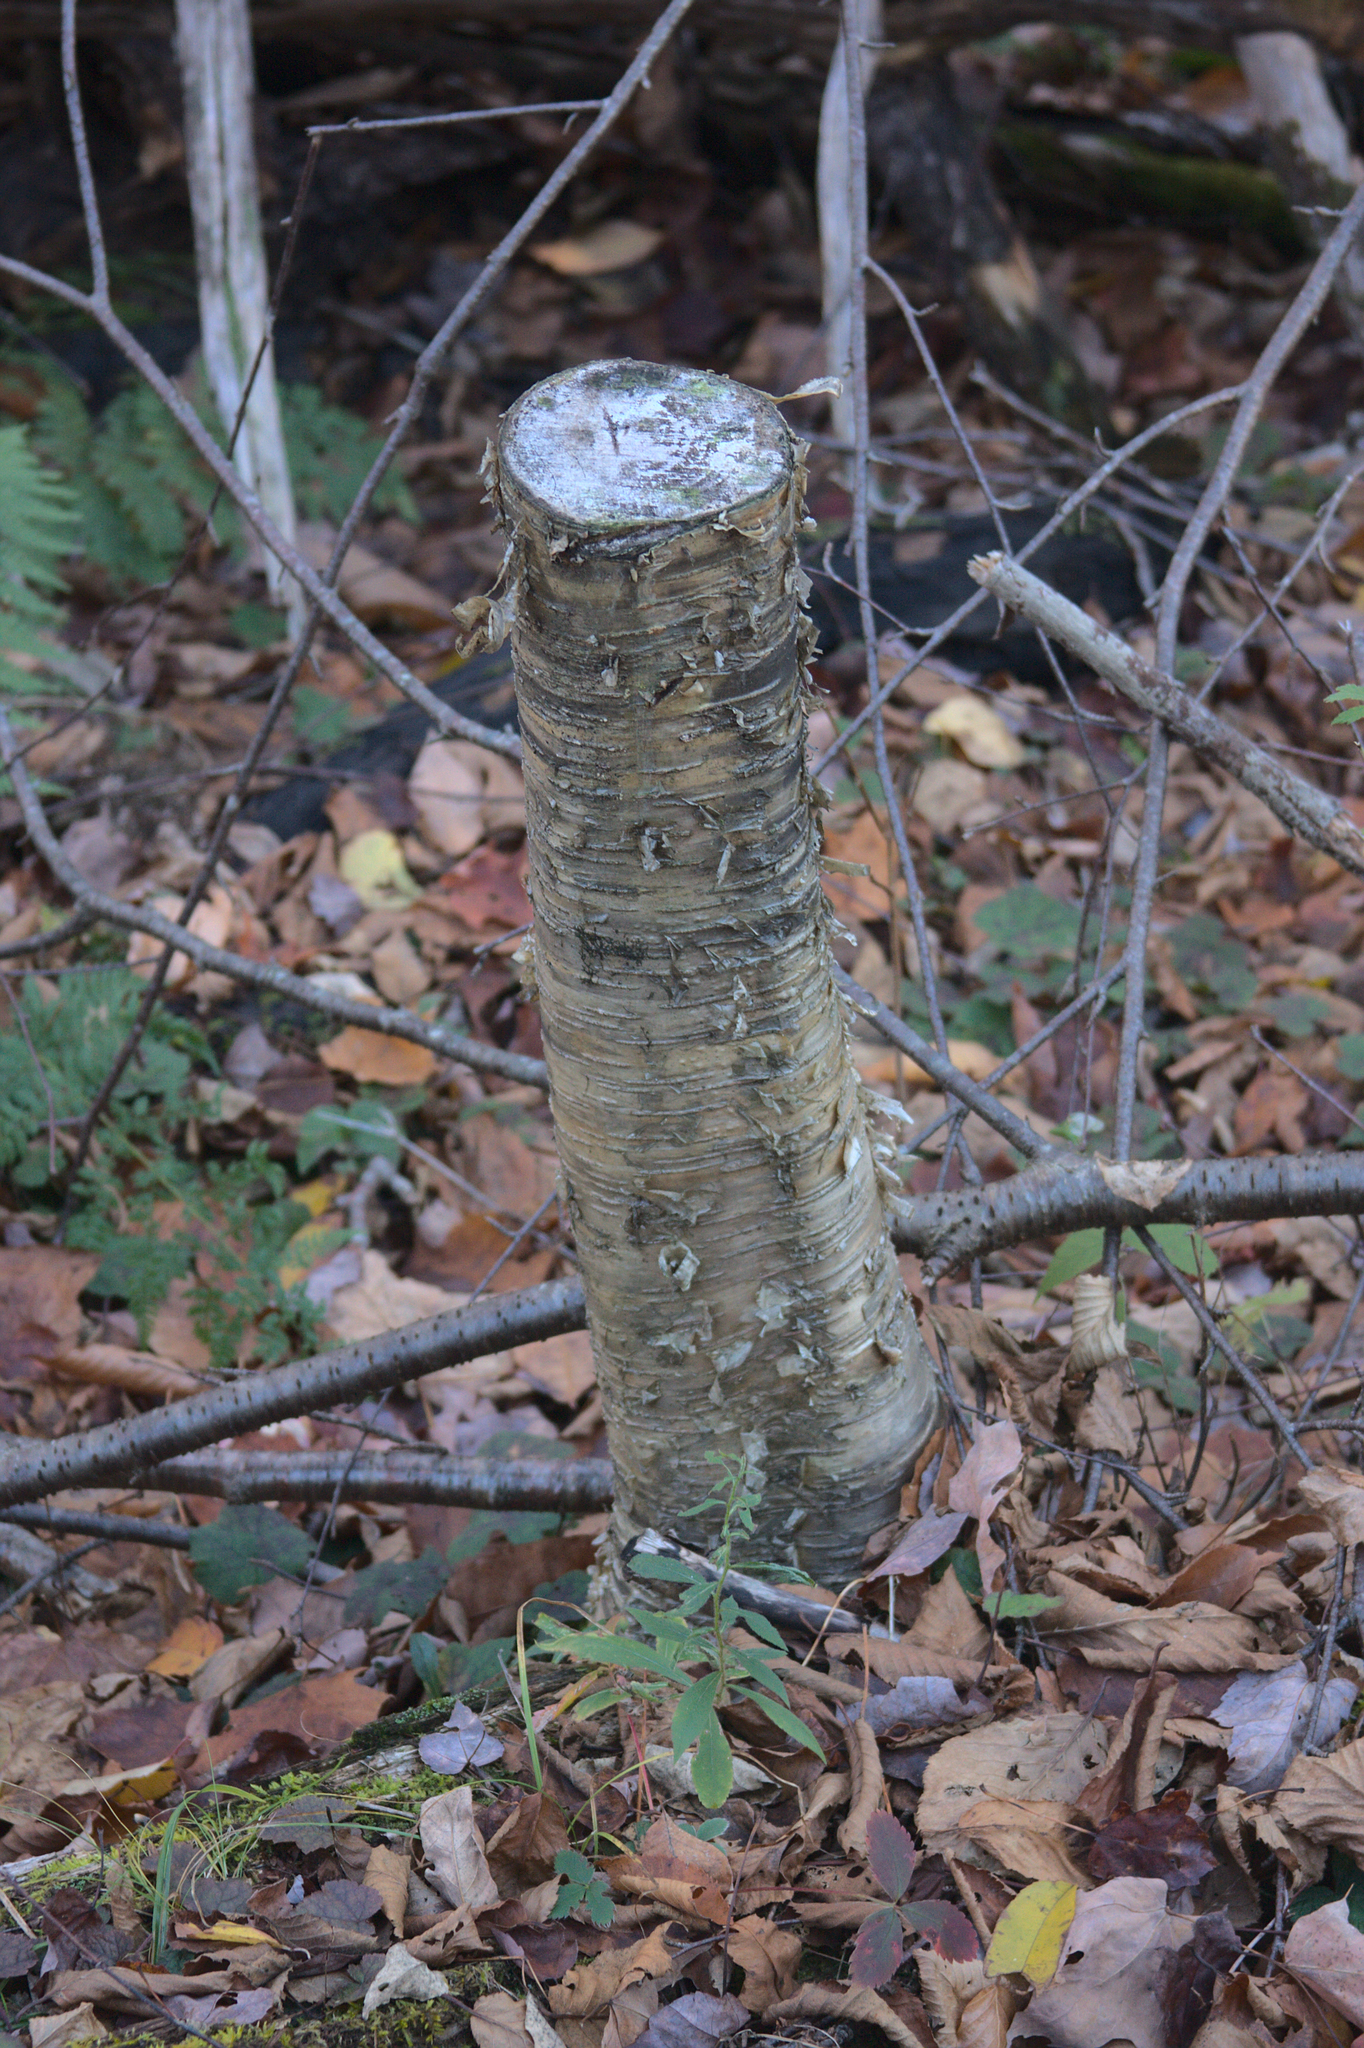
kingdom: Plantae
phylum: Tracheophyta
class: Magnoliopsida
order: Fagales
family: Betulaceae
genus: Betula
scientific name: Betula alleghaniensis
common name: Yellow birch
